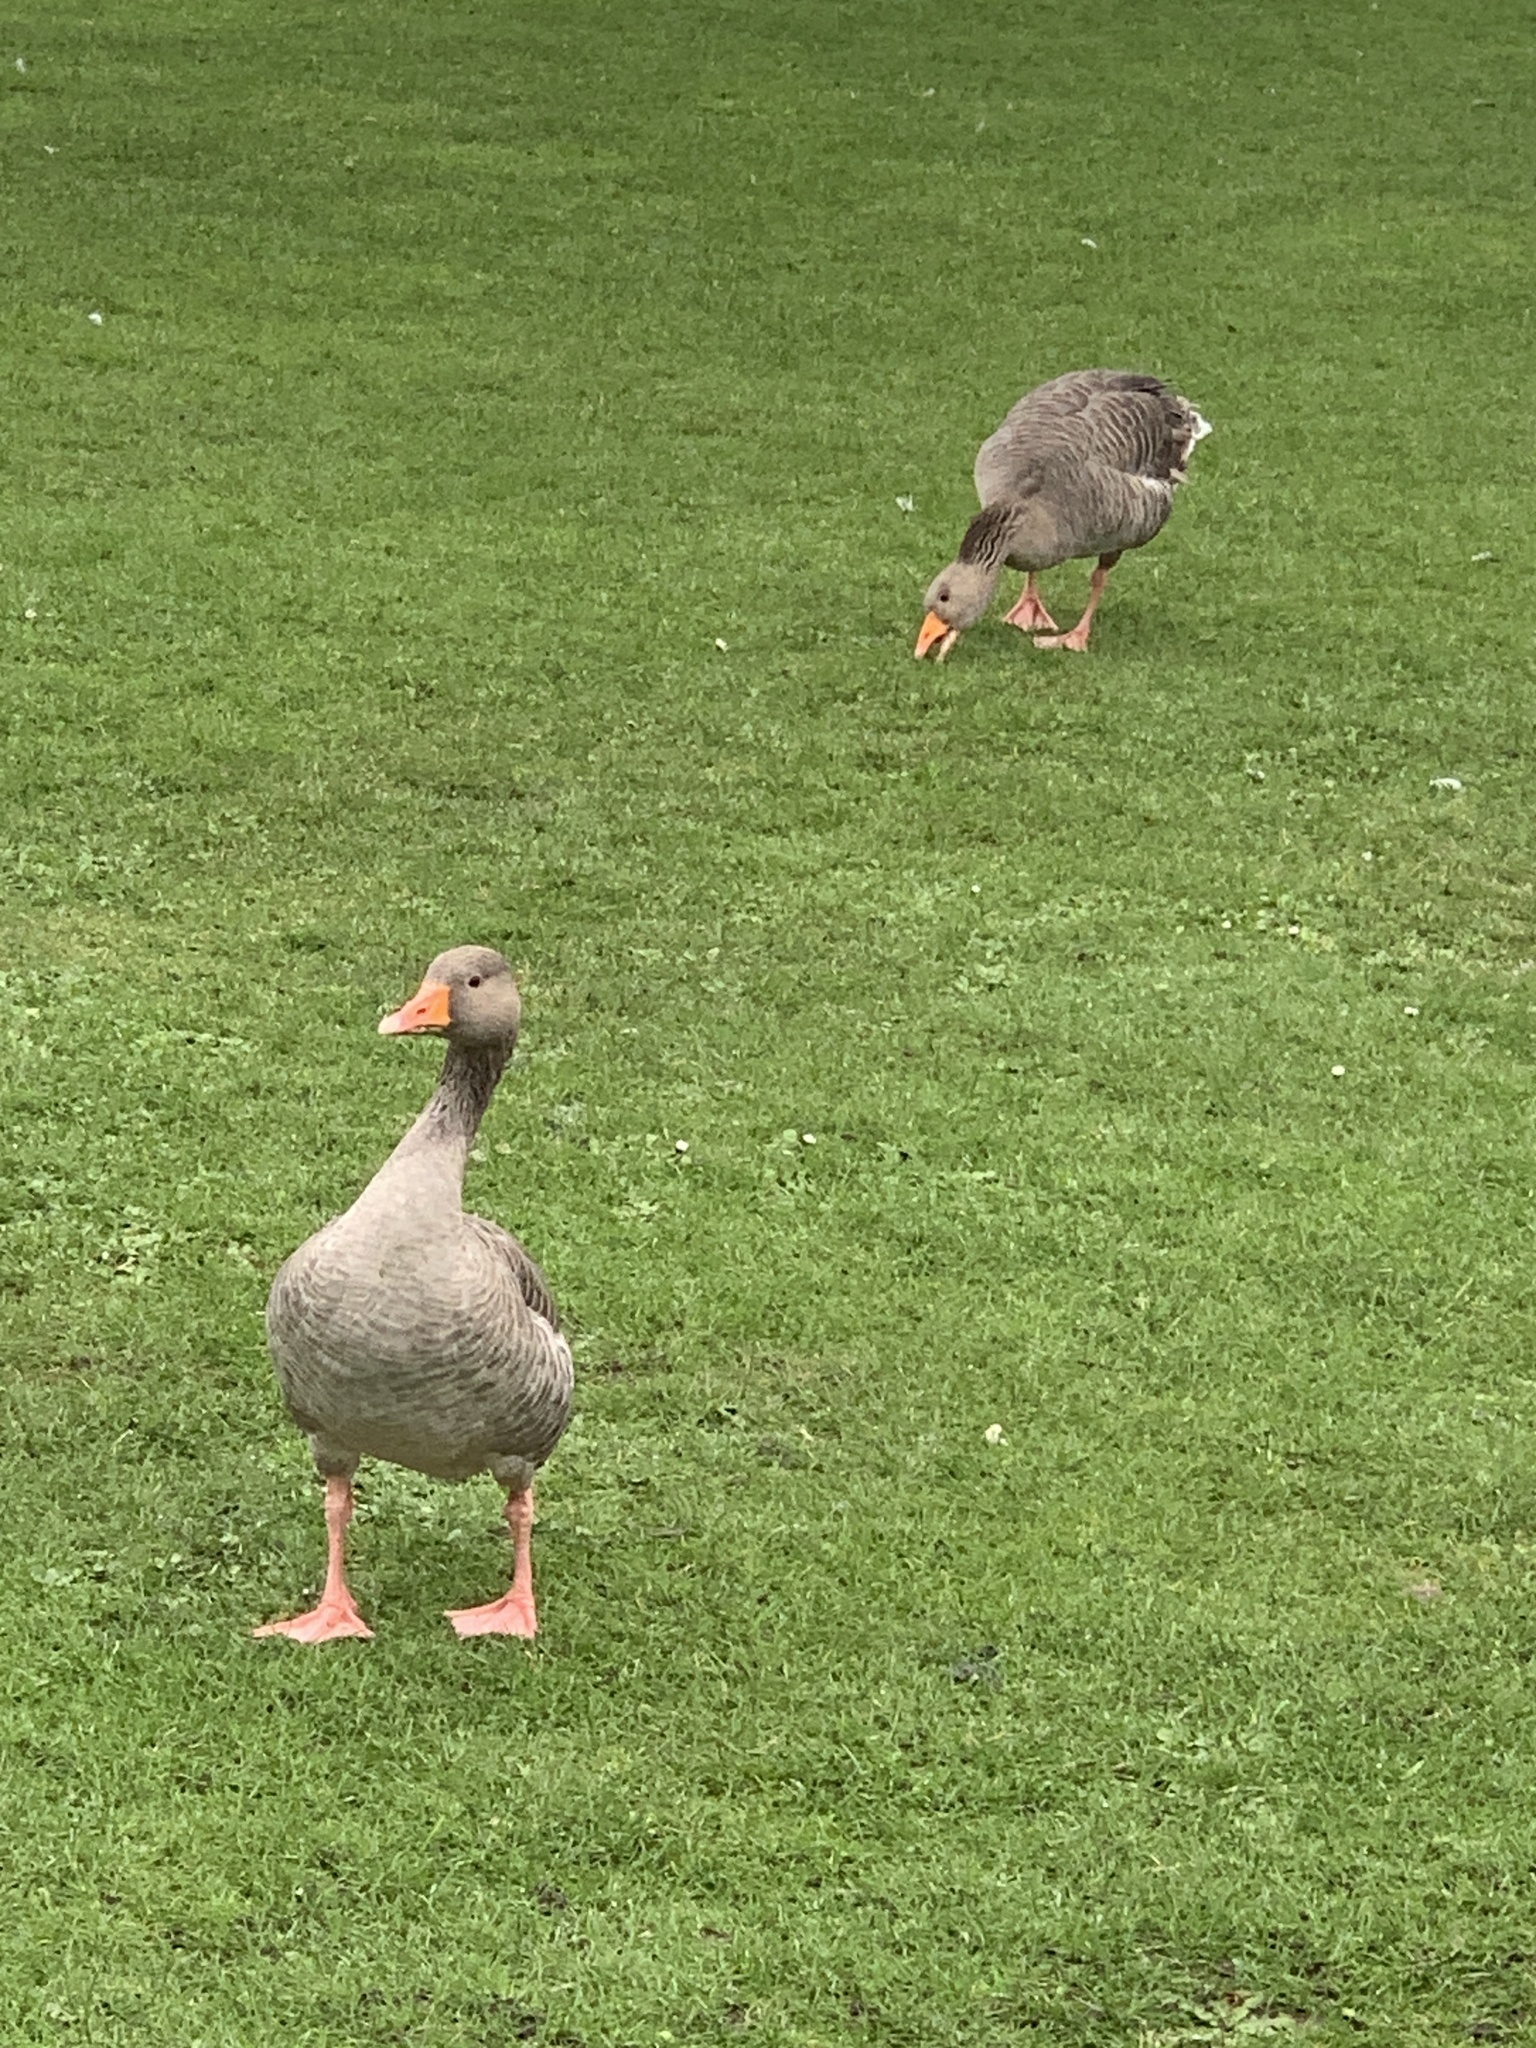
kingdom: Animalia
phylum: Chordata
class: Aves
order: Anseriformes
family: Anatidae
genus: Anser
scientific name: Anser anser
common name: Greylag goose
